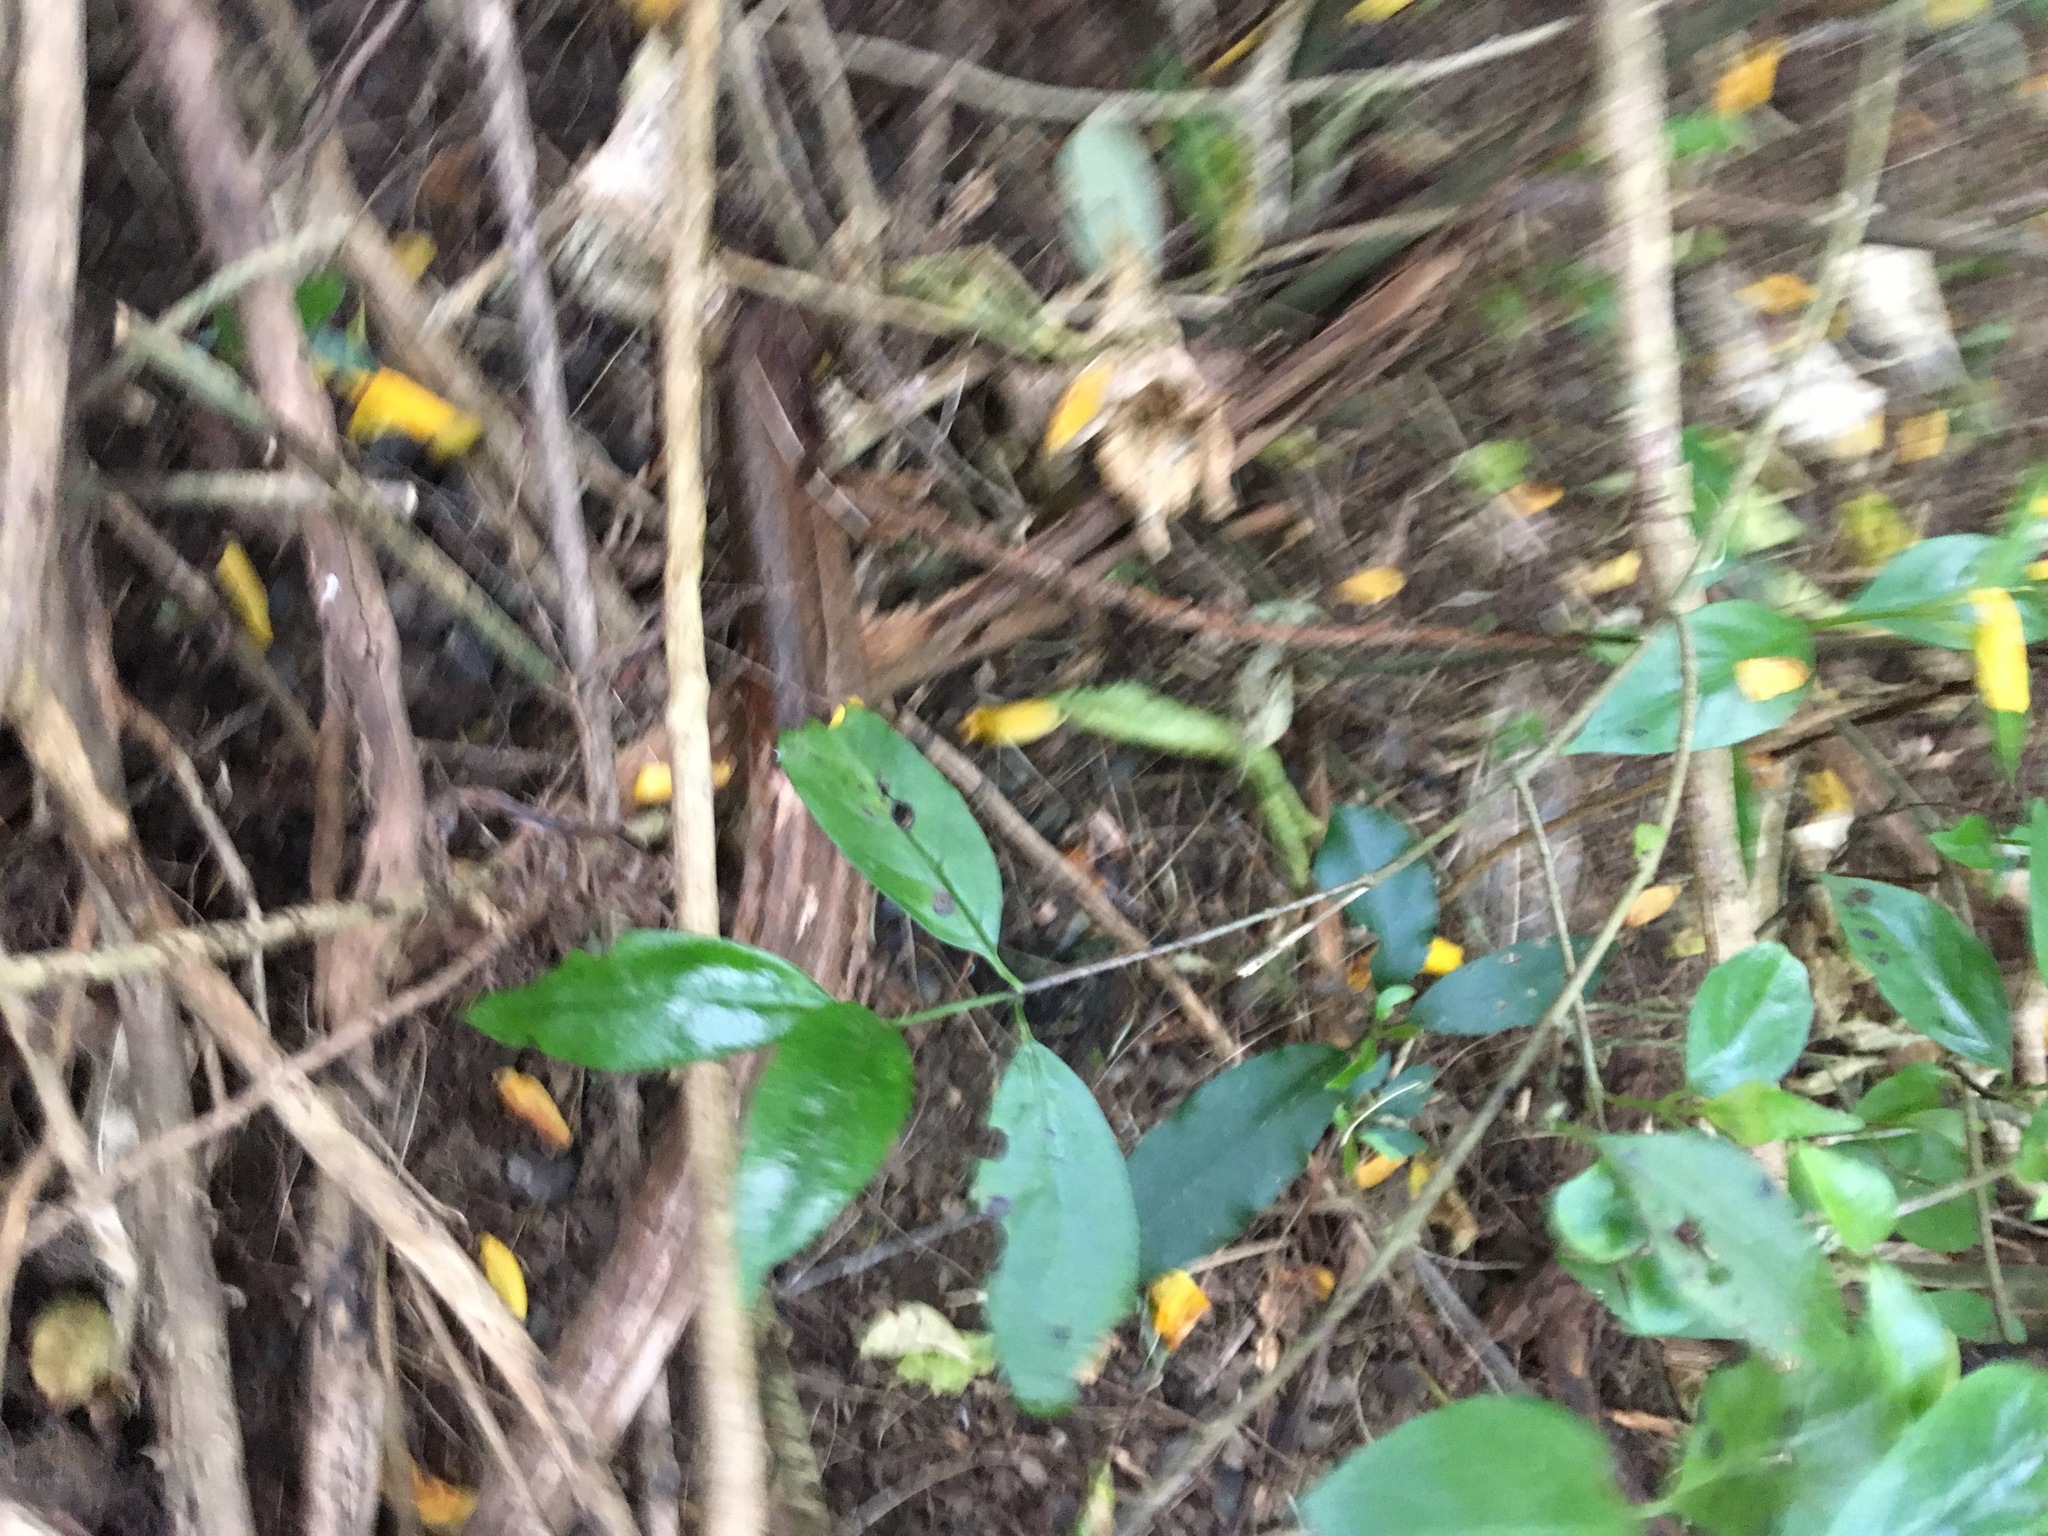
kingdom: Plantae
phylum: Tracheophyta
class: Magnoliopsida
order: Gentianales
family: Loganiaceae
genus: Geniostoma
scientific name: Geniostoma ligustrifolium
